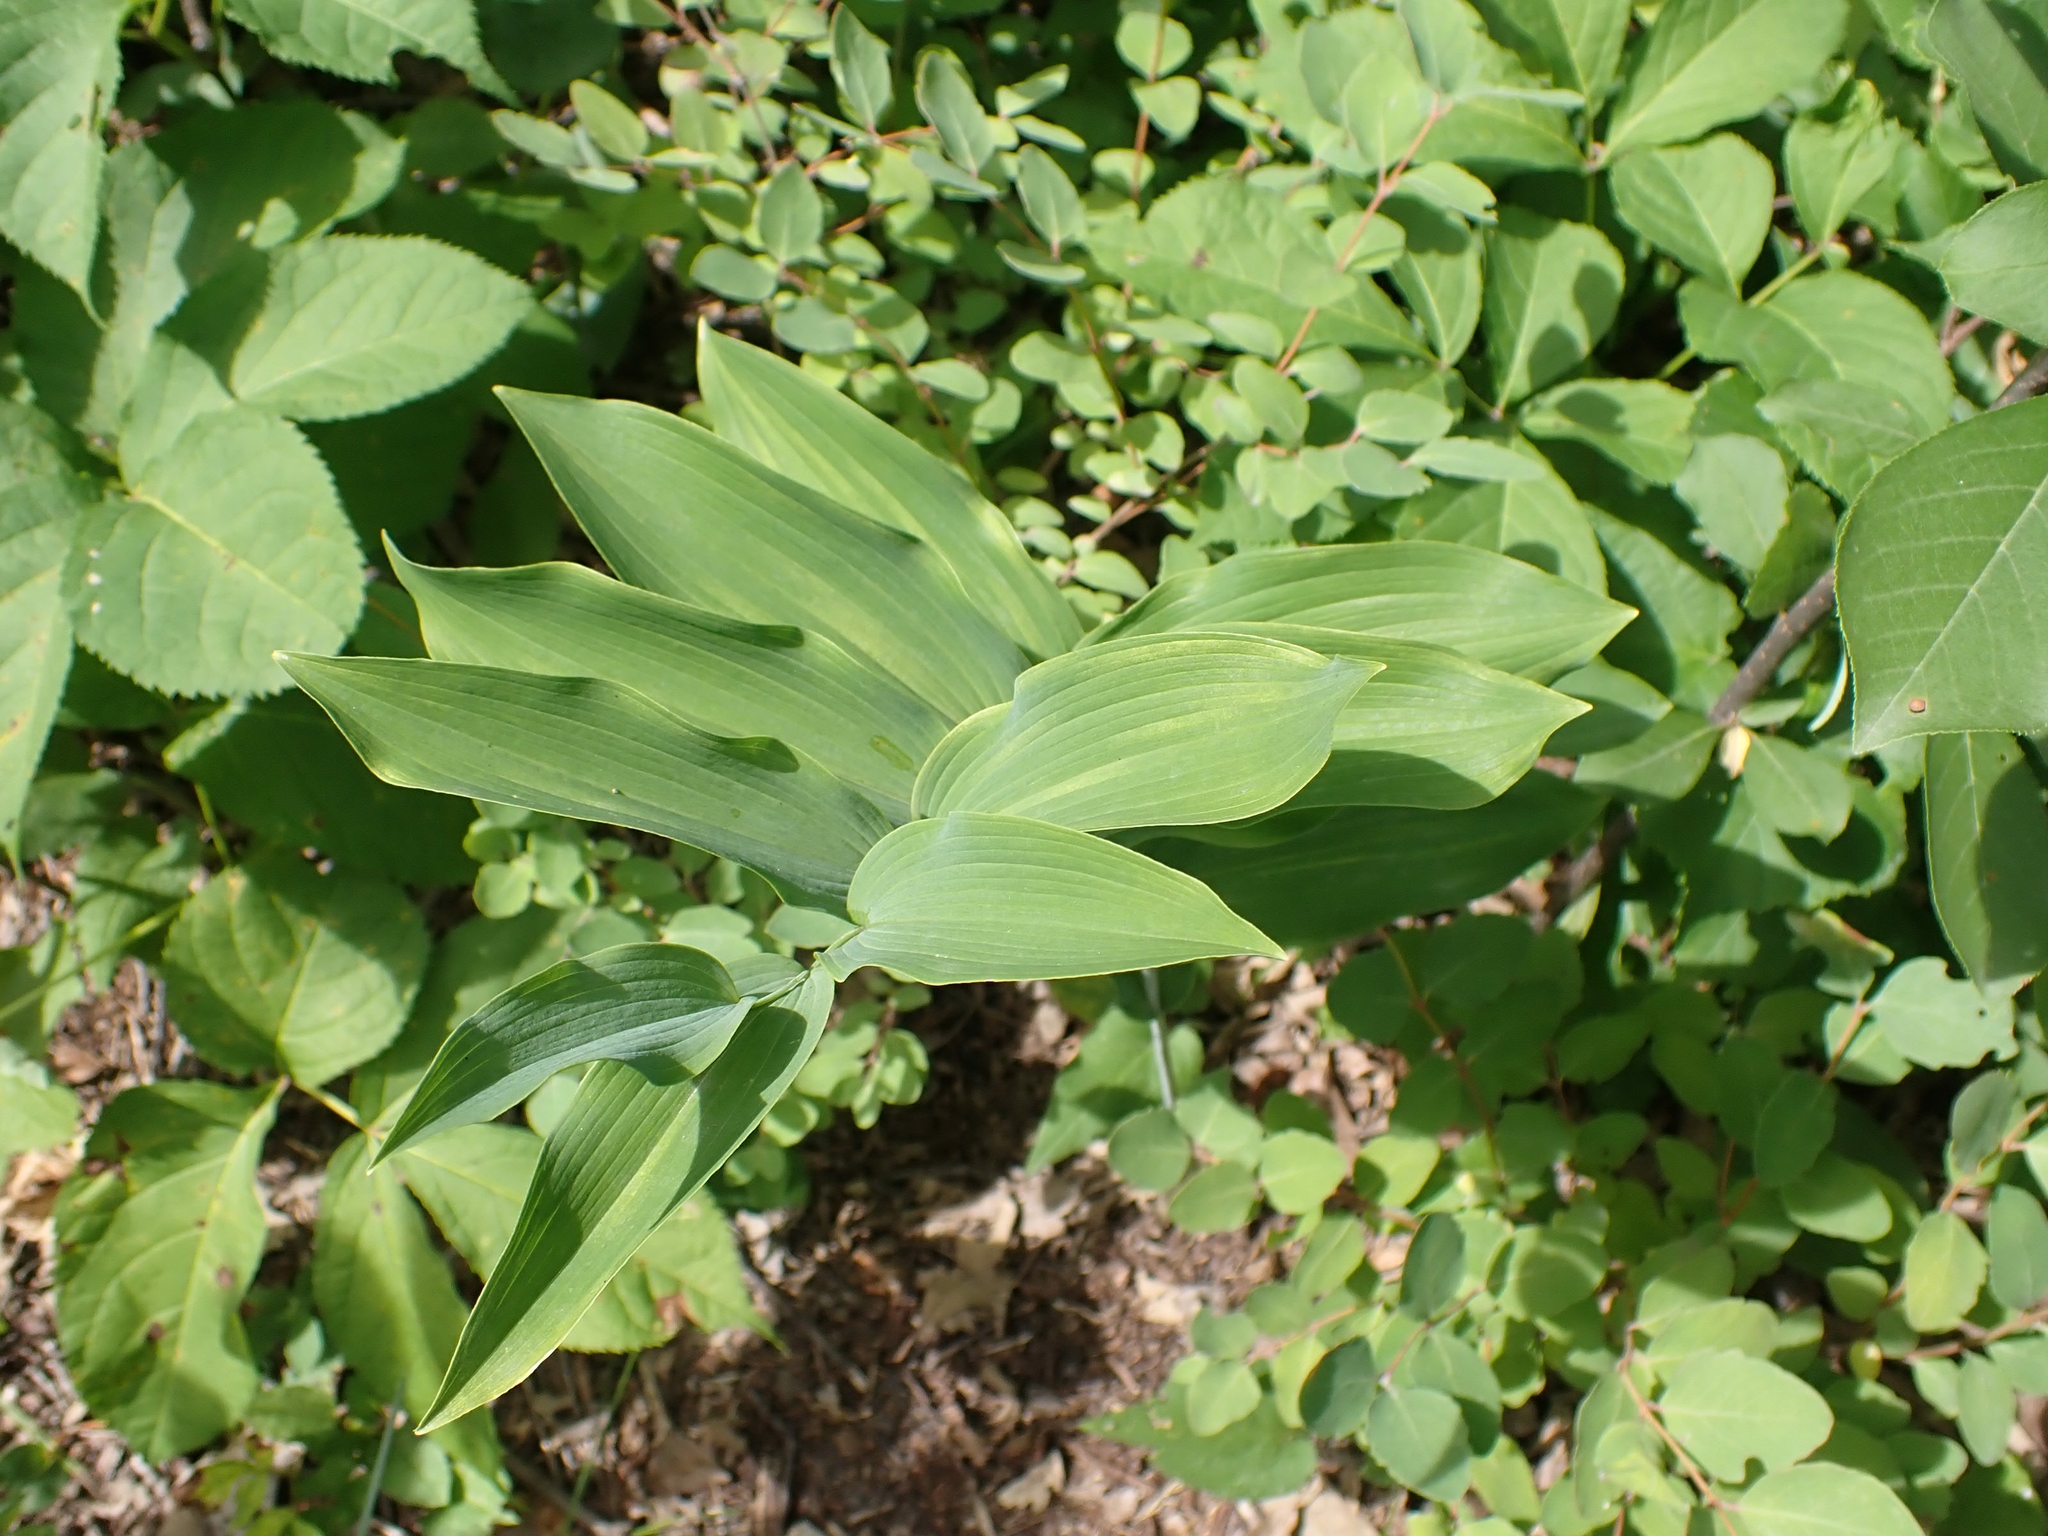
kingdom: Plantae
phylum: Tracheophyta
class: Liliopsida
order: Asparagales
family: Asparagaceae
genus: Polygonatum
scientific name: Polygonatum biflorum
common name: American solomon's-seal
